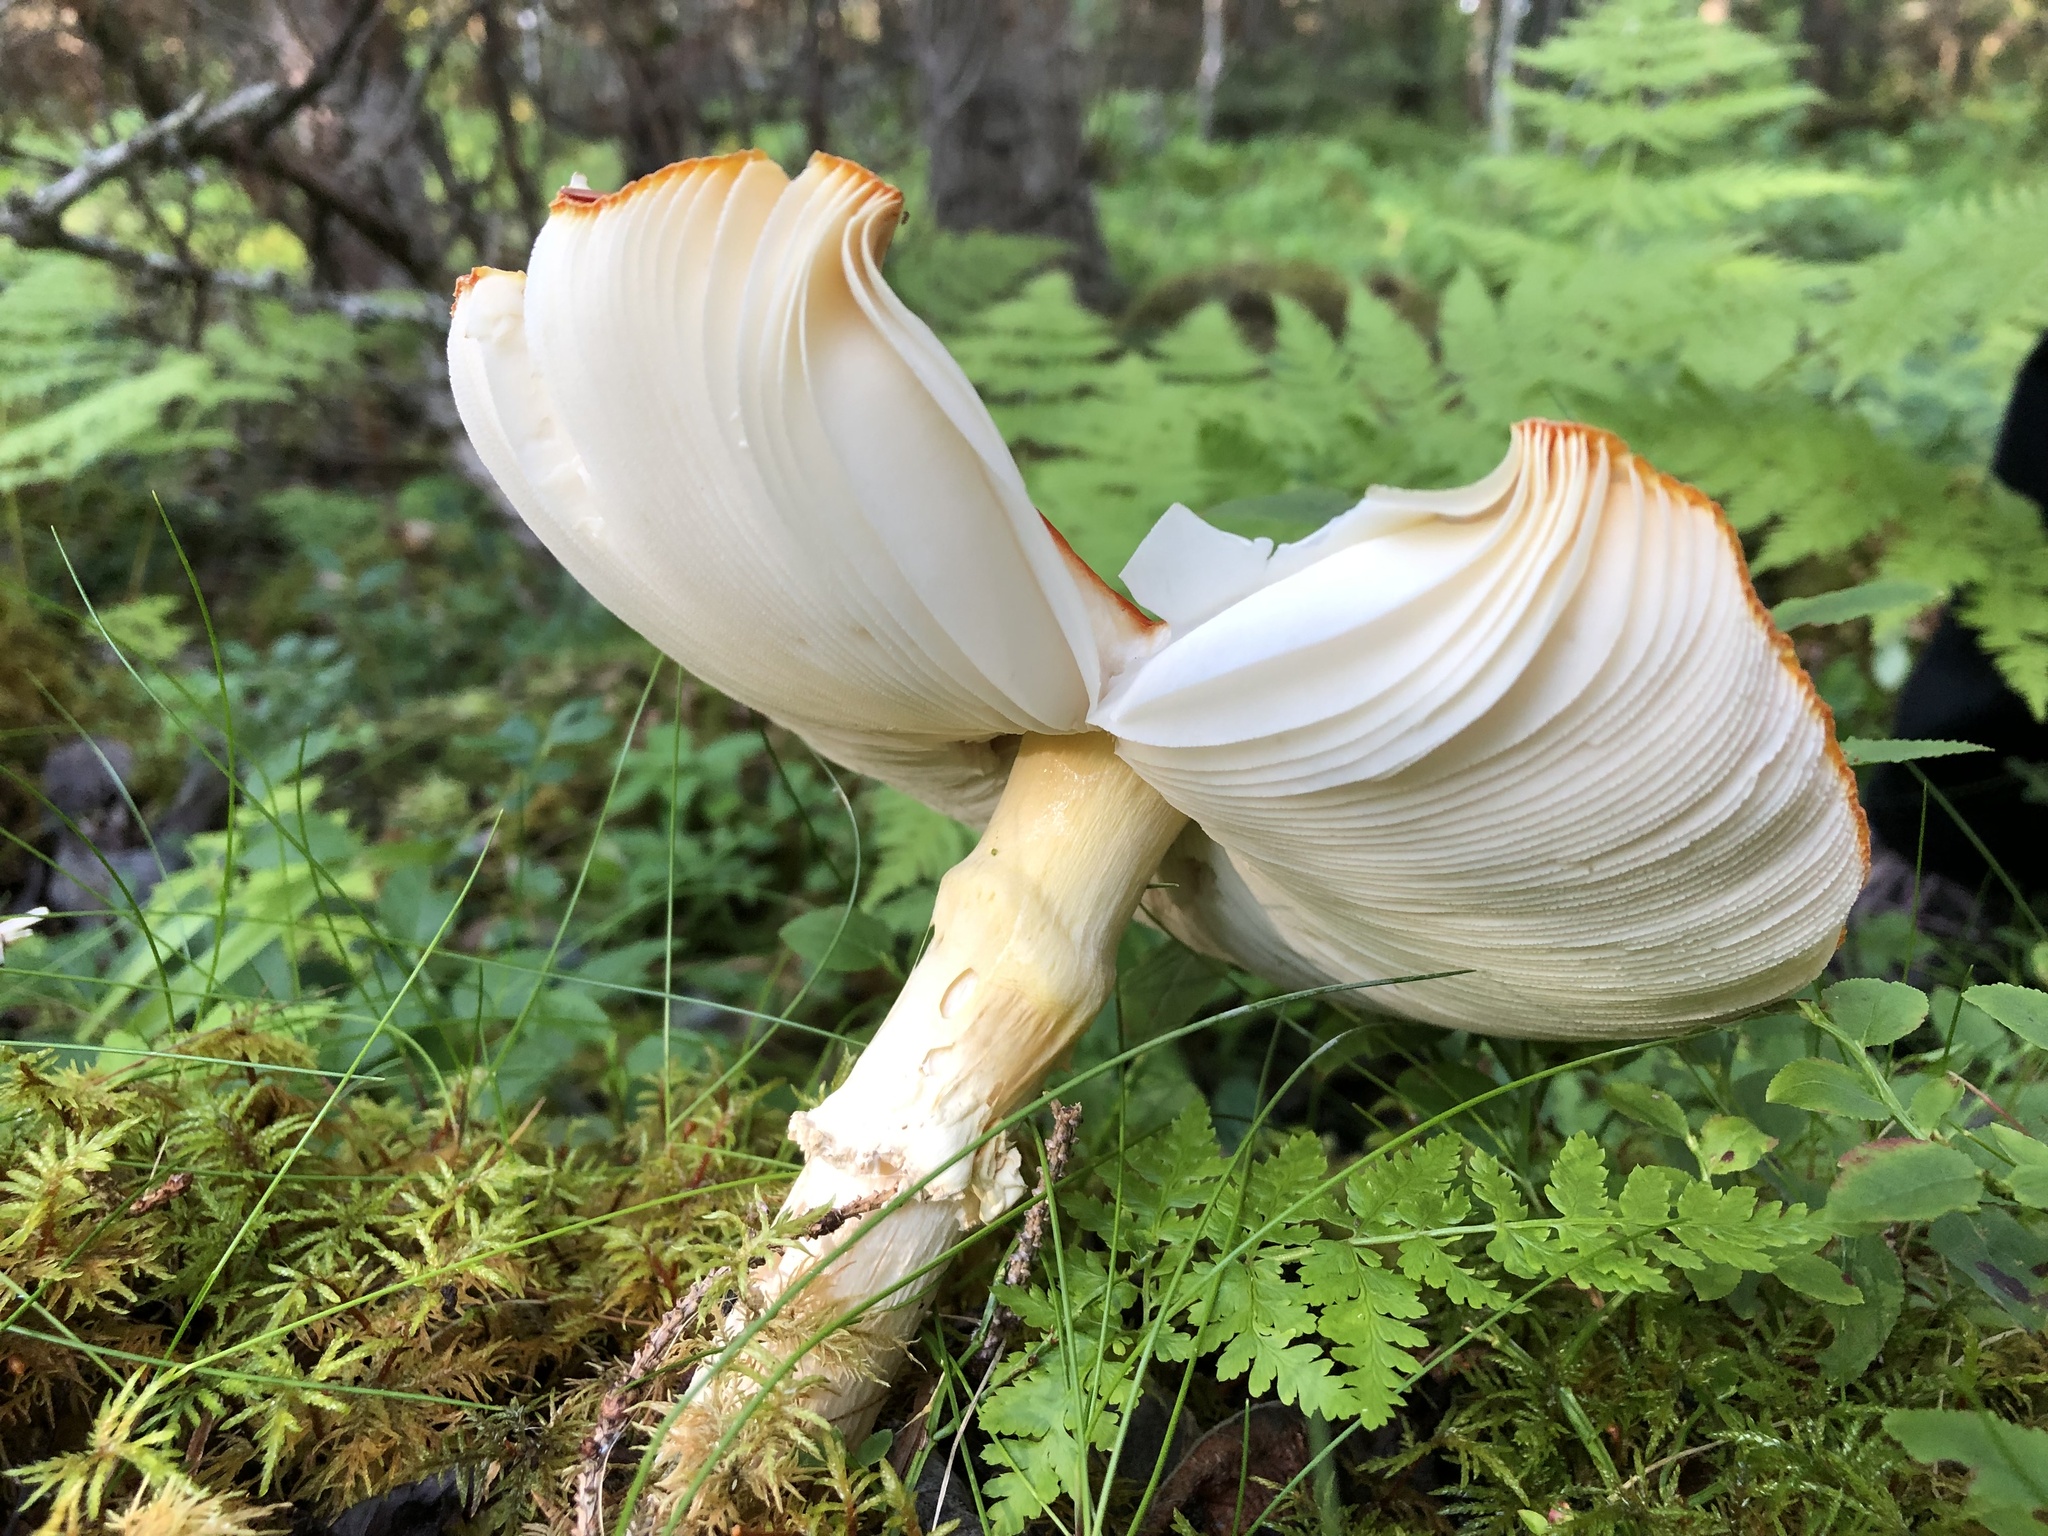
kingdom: Fungi
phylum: Basidiomycota
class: Agaricomycetes
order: Agaricales
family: Amanitaceae
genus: Amanita
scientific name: Amanita muscaria
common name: Fly agaric
